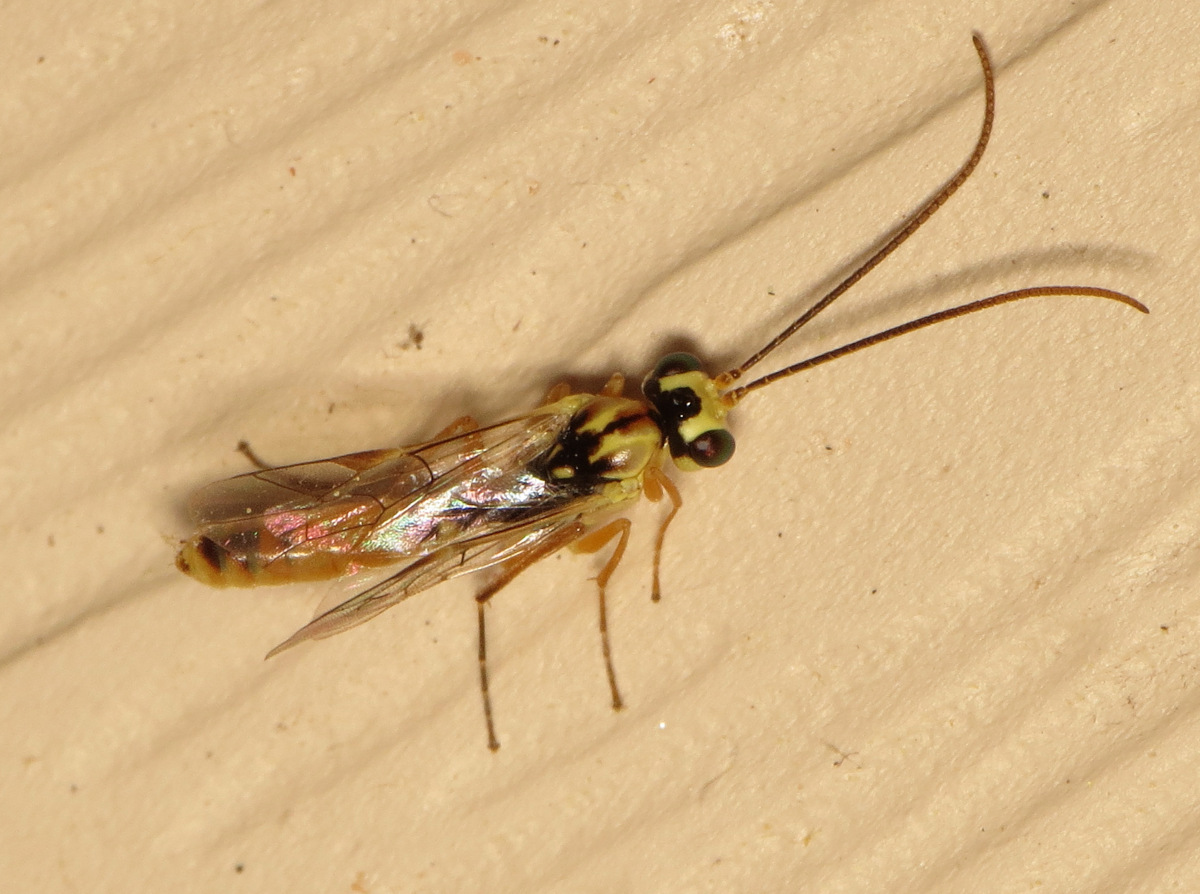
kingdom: Animalia
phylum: Arthropoda
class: Insecta
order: Hymenoptera
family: Ichneumonidae
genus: Euceros
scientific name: Euceros
